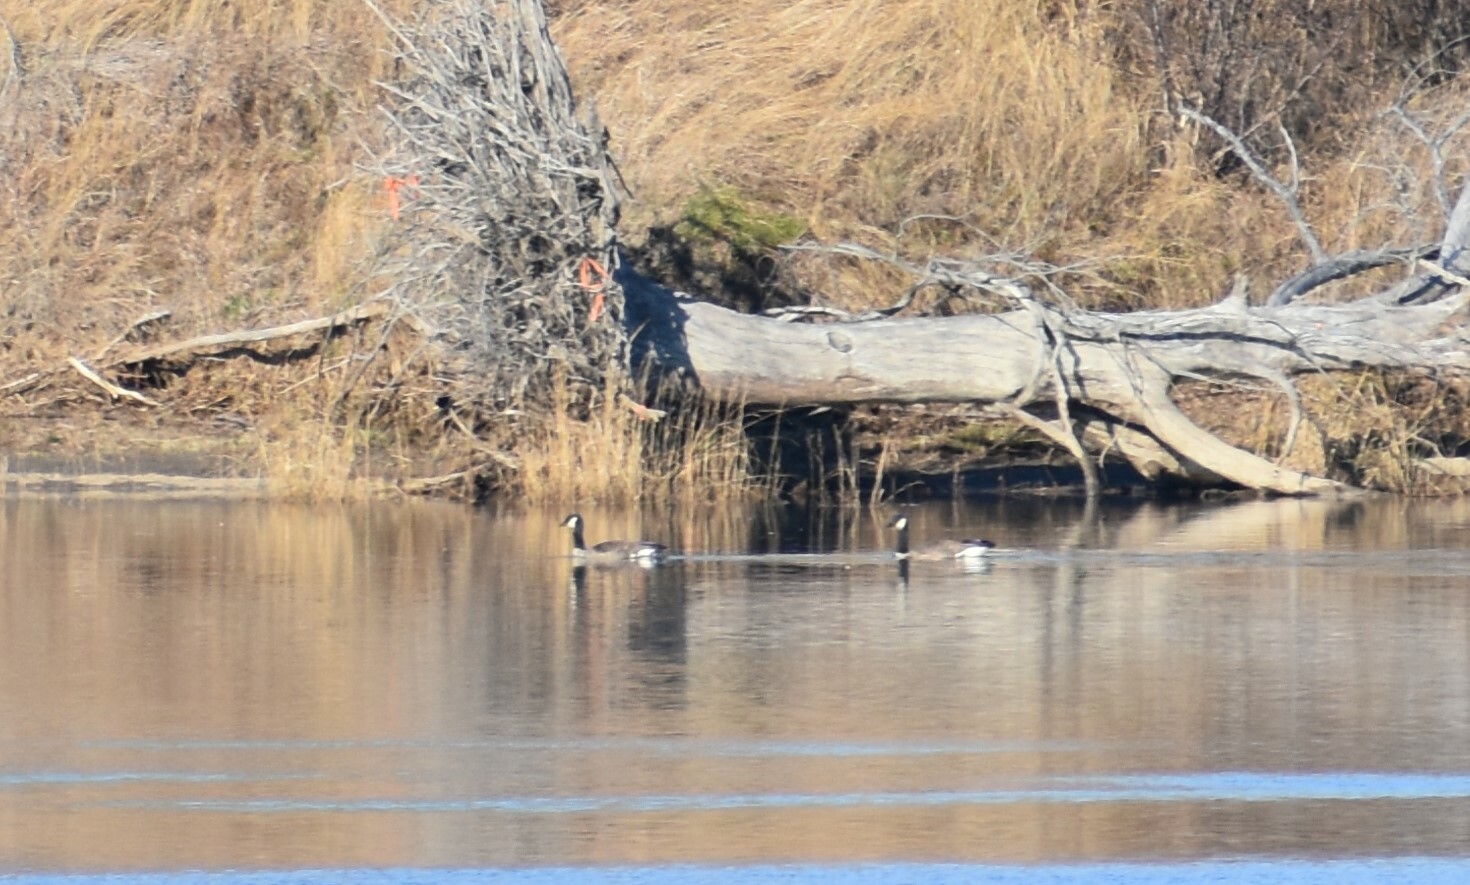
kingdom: Animalia
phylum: Chordata
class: Aves
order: Anseriformes
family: Anatidae
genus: Branta
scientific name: Branta canadensis
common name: Canada goose
